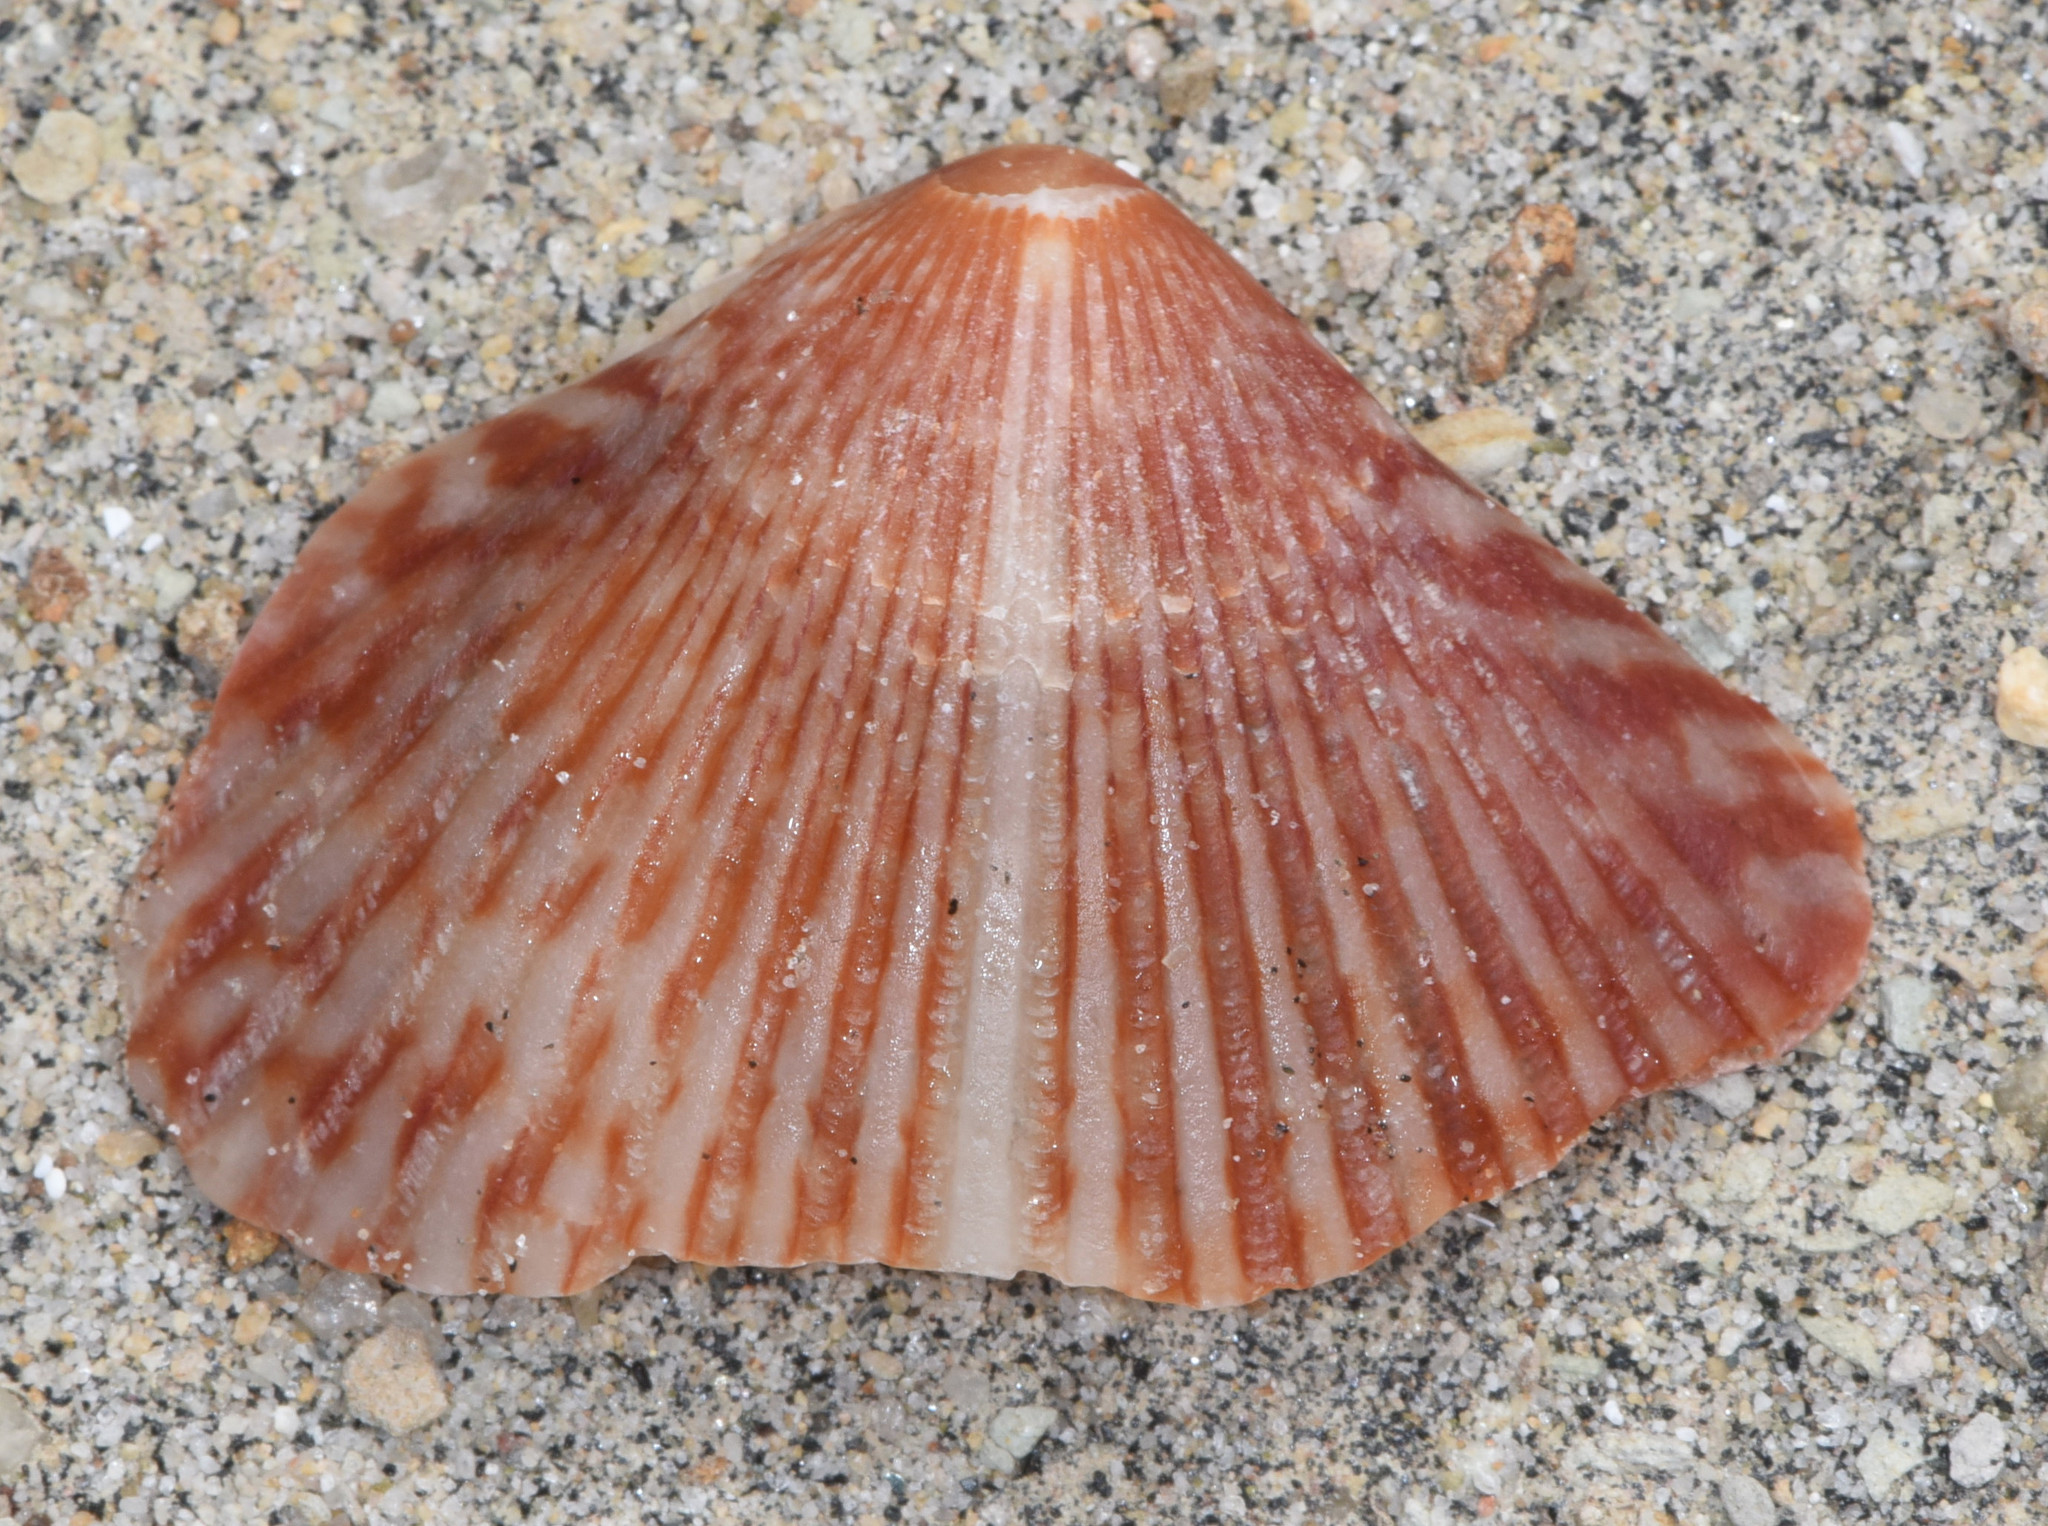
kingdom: Animalia
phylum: Mollusca
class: Bivalvia
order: Pectinida
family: Pectinidae
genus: Argopecten
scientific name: Argopecten ventricosus
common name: Catarina scallop
